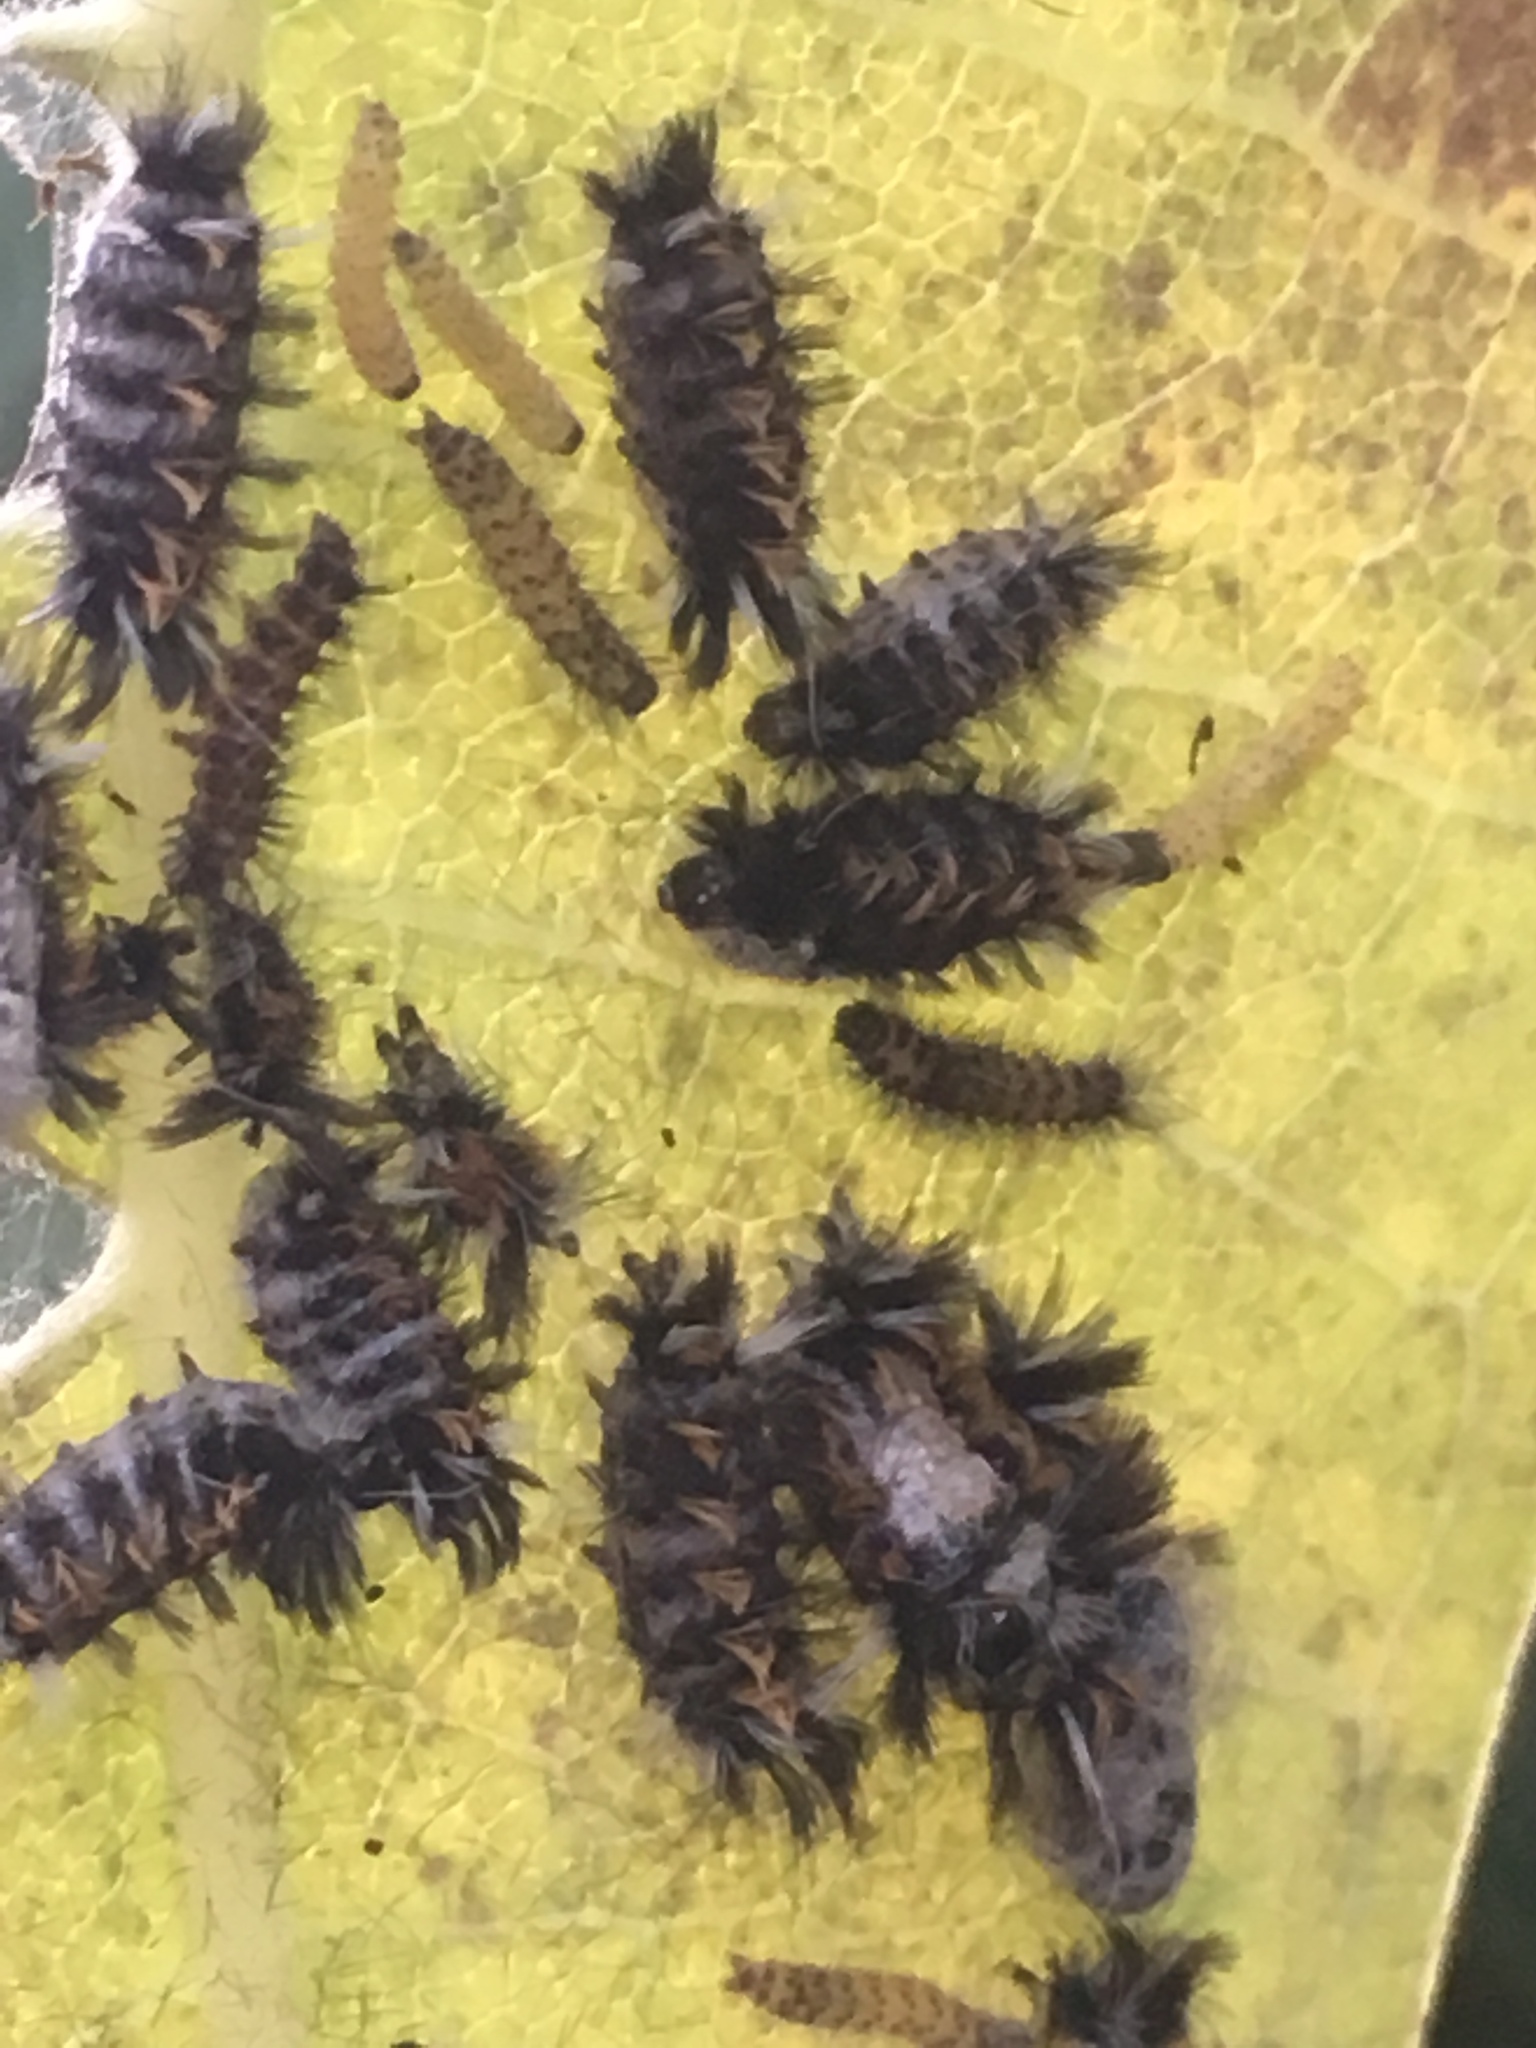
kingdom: Animalia
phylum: Arthropoda
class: Insecta
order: Lepidoptera
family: Erebidae
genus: Euchaetes
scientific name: Euchaetes egle
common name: Milkweed tussock moth
